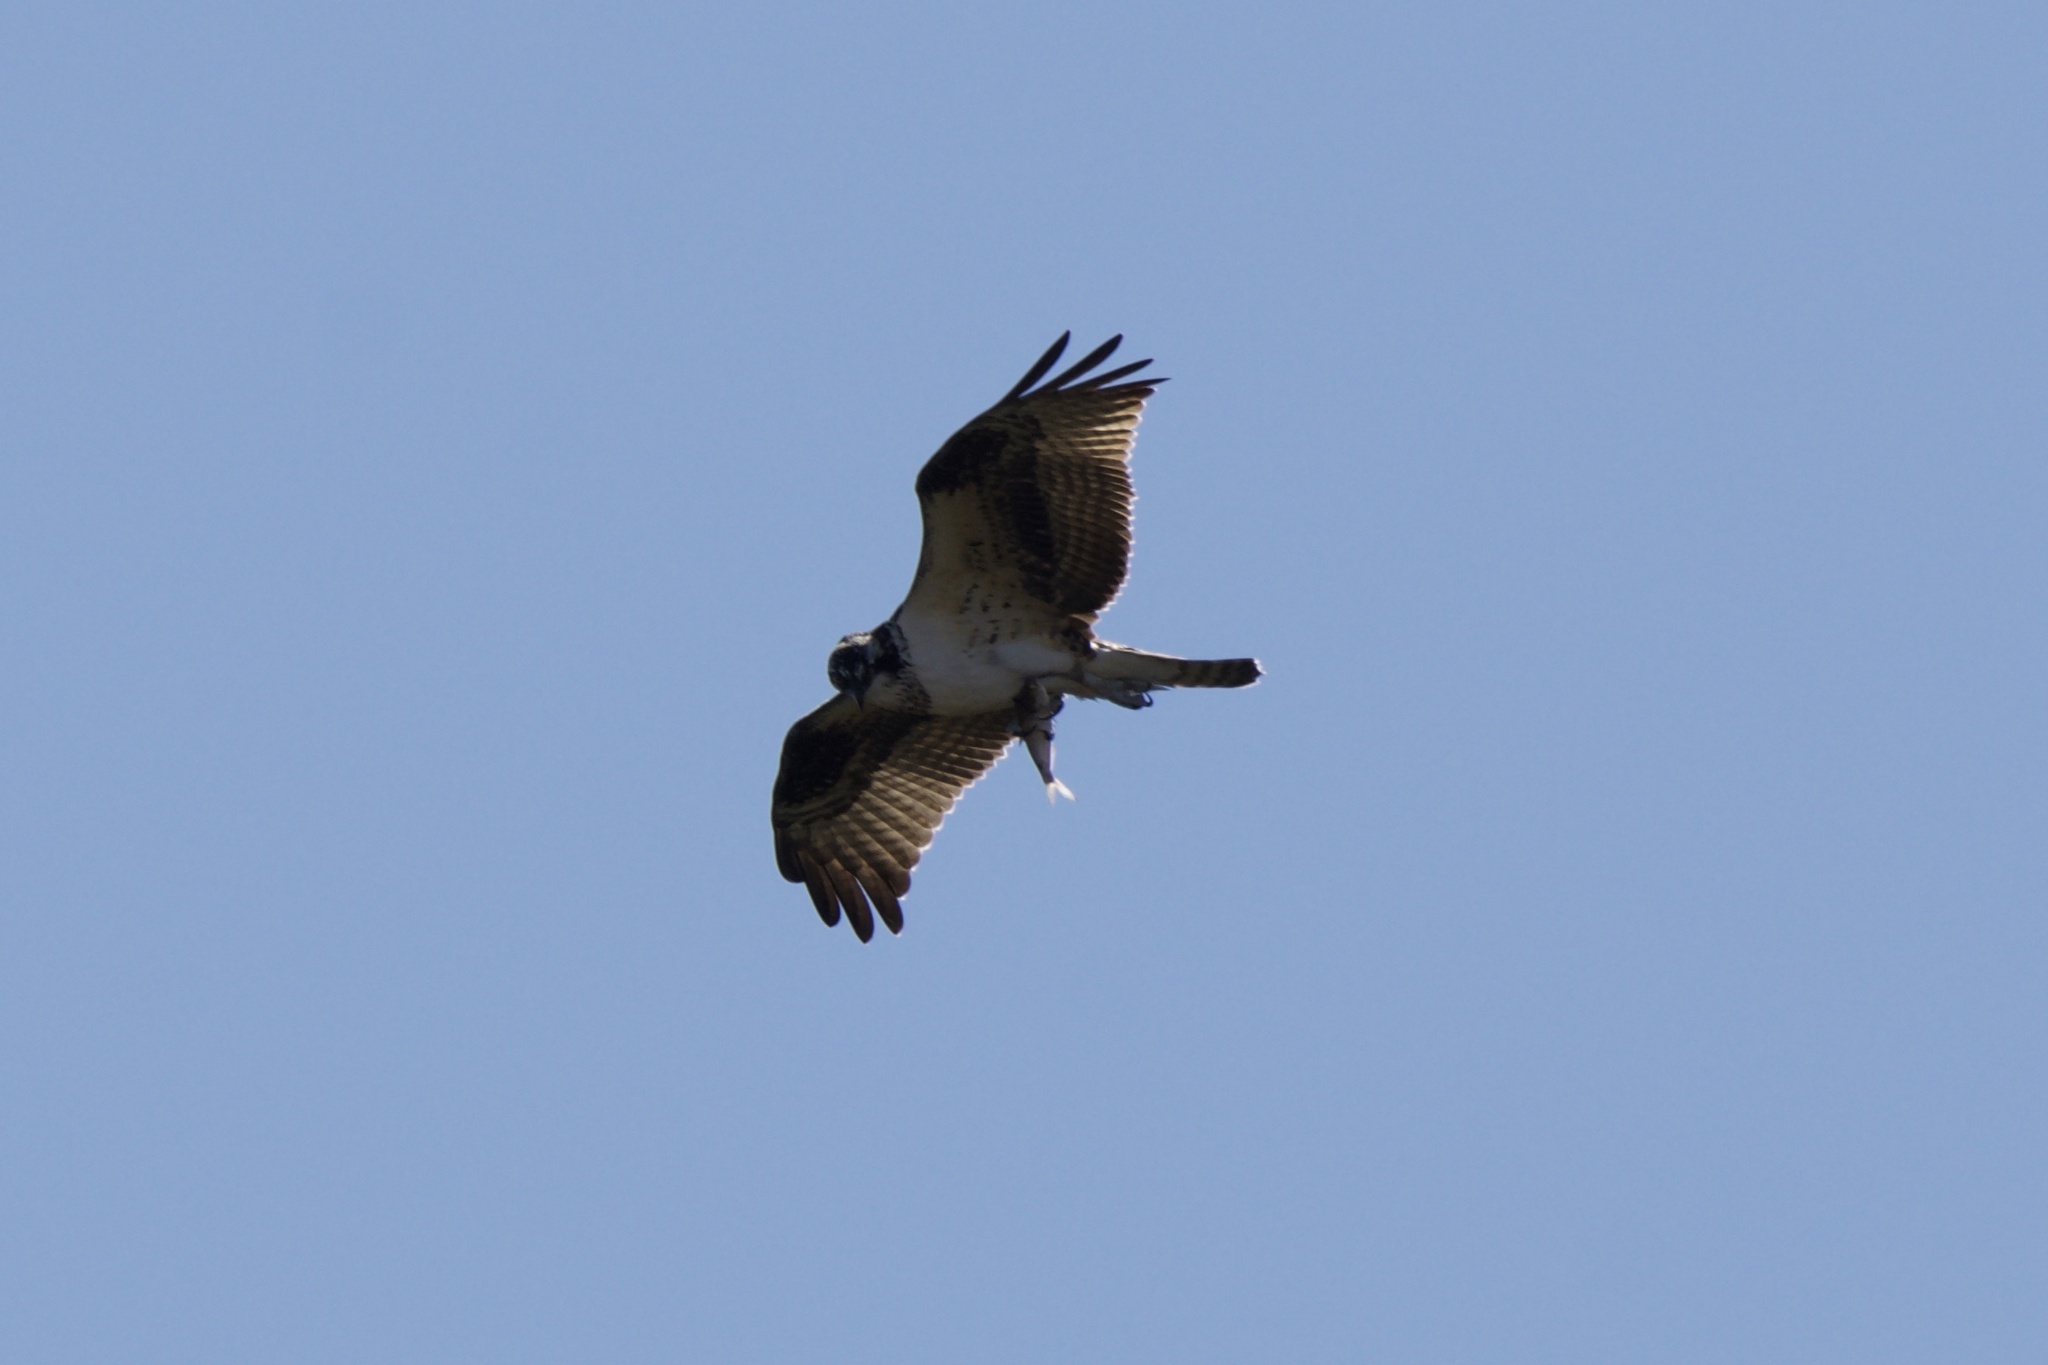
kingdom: Animalia
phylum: Chordata
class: Aves
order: Accipitriformes
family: Pandionidae
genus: Pandion
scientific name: Pandion haliaetus
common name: Osprey
